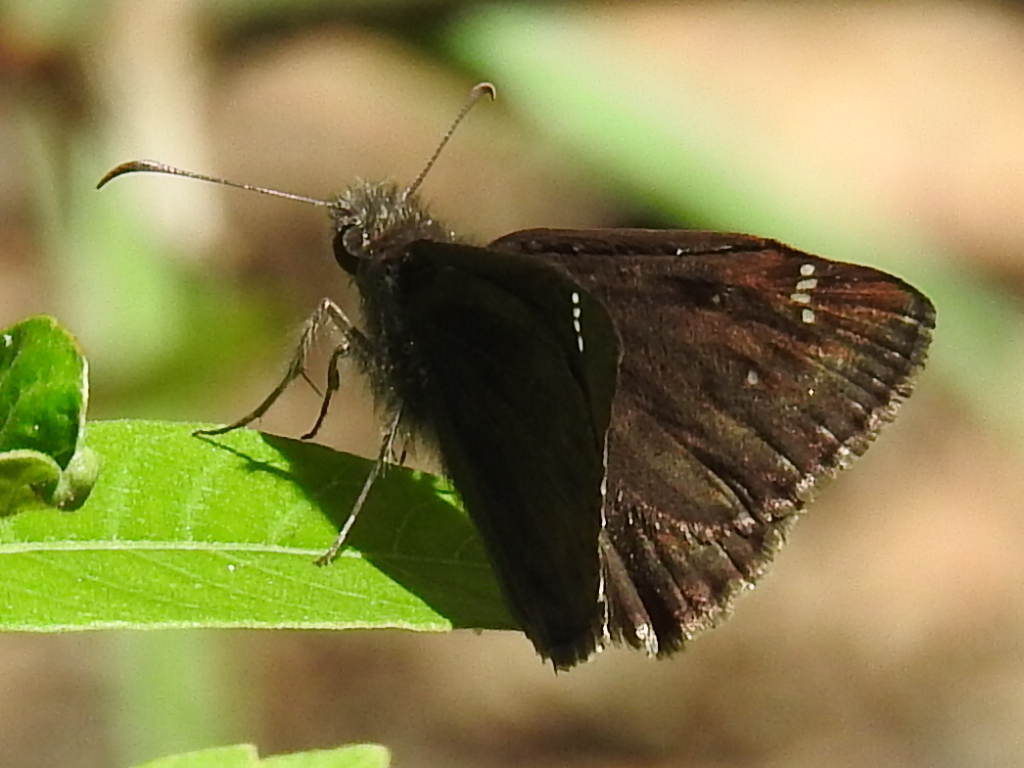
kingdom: Animalia
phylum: Arthropoda
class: Insecta
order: Lepidoptera
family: Hesperiidae
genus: Pholisora
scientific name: Pholisora catullus
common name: Common sootywing
